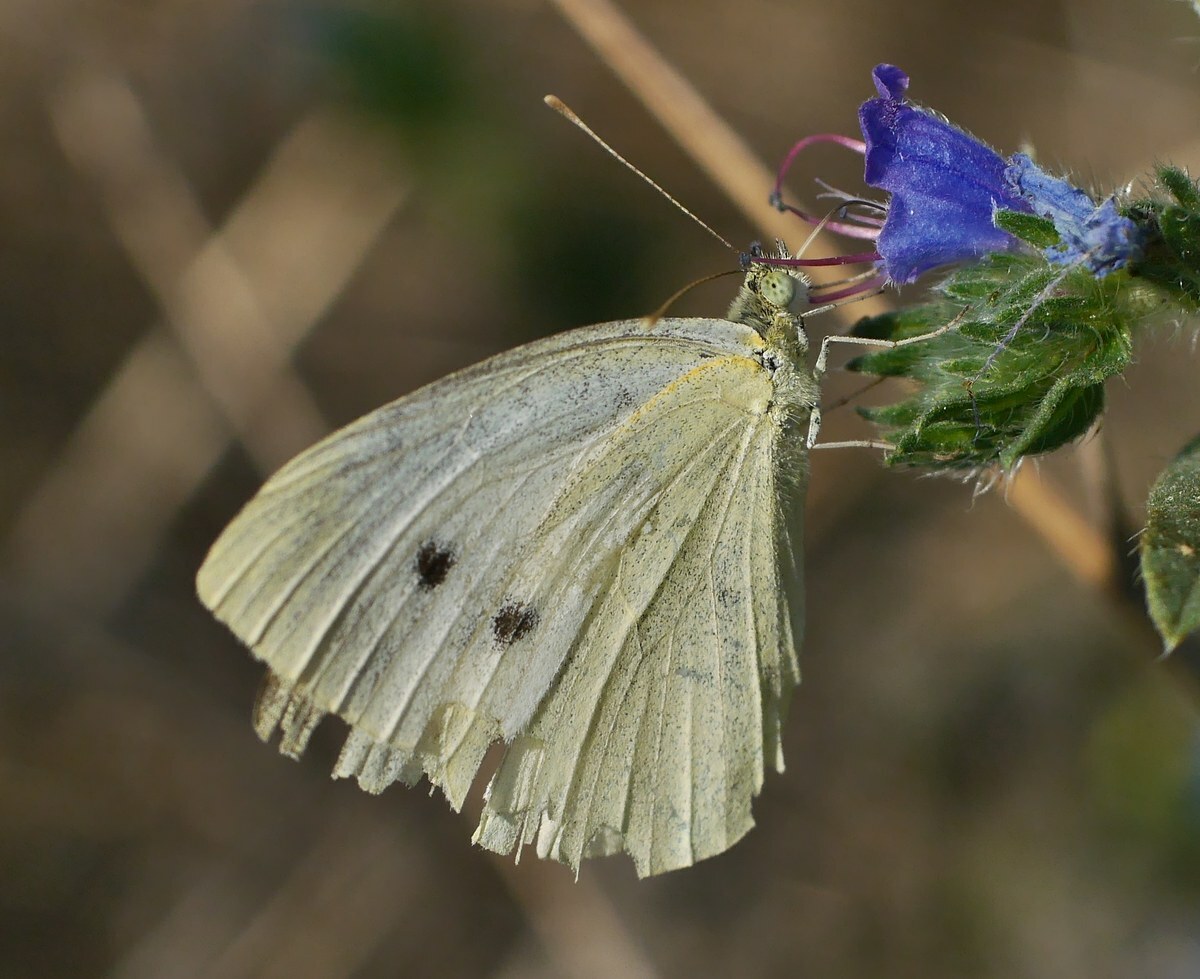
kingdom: Animalia
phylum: Arthropoda
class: Insecta
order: Lepidoptera
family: Pieridae
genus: Pieris
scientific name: Pieris rapae
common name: Small white
